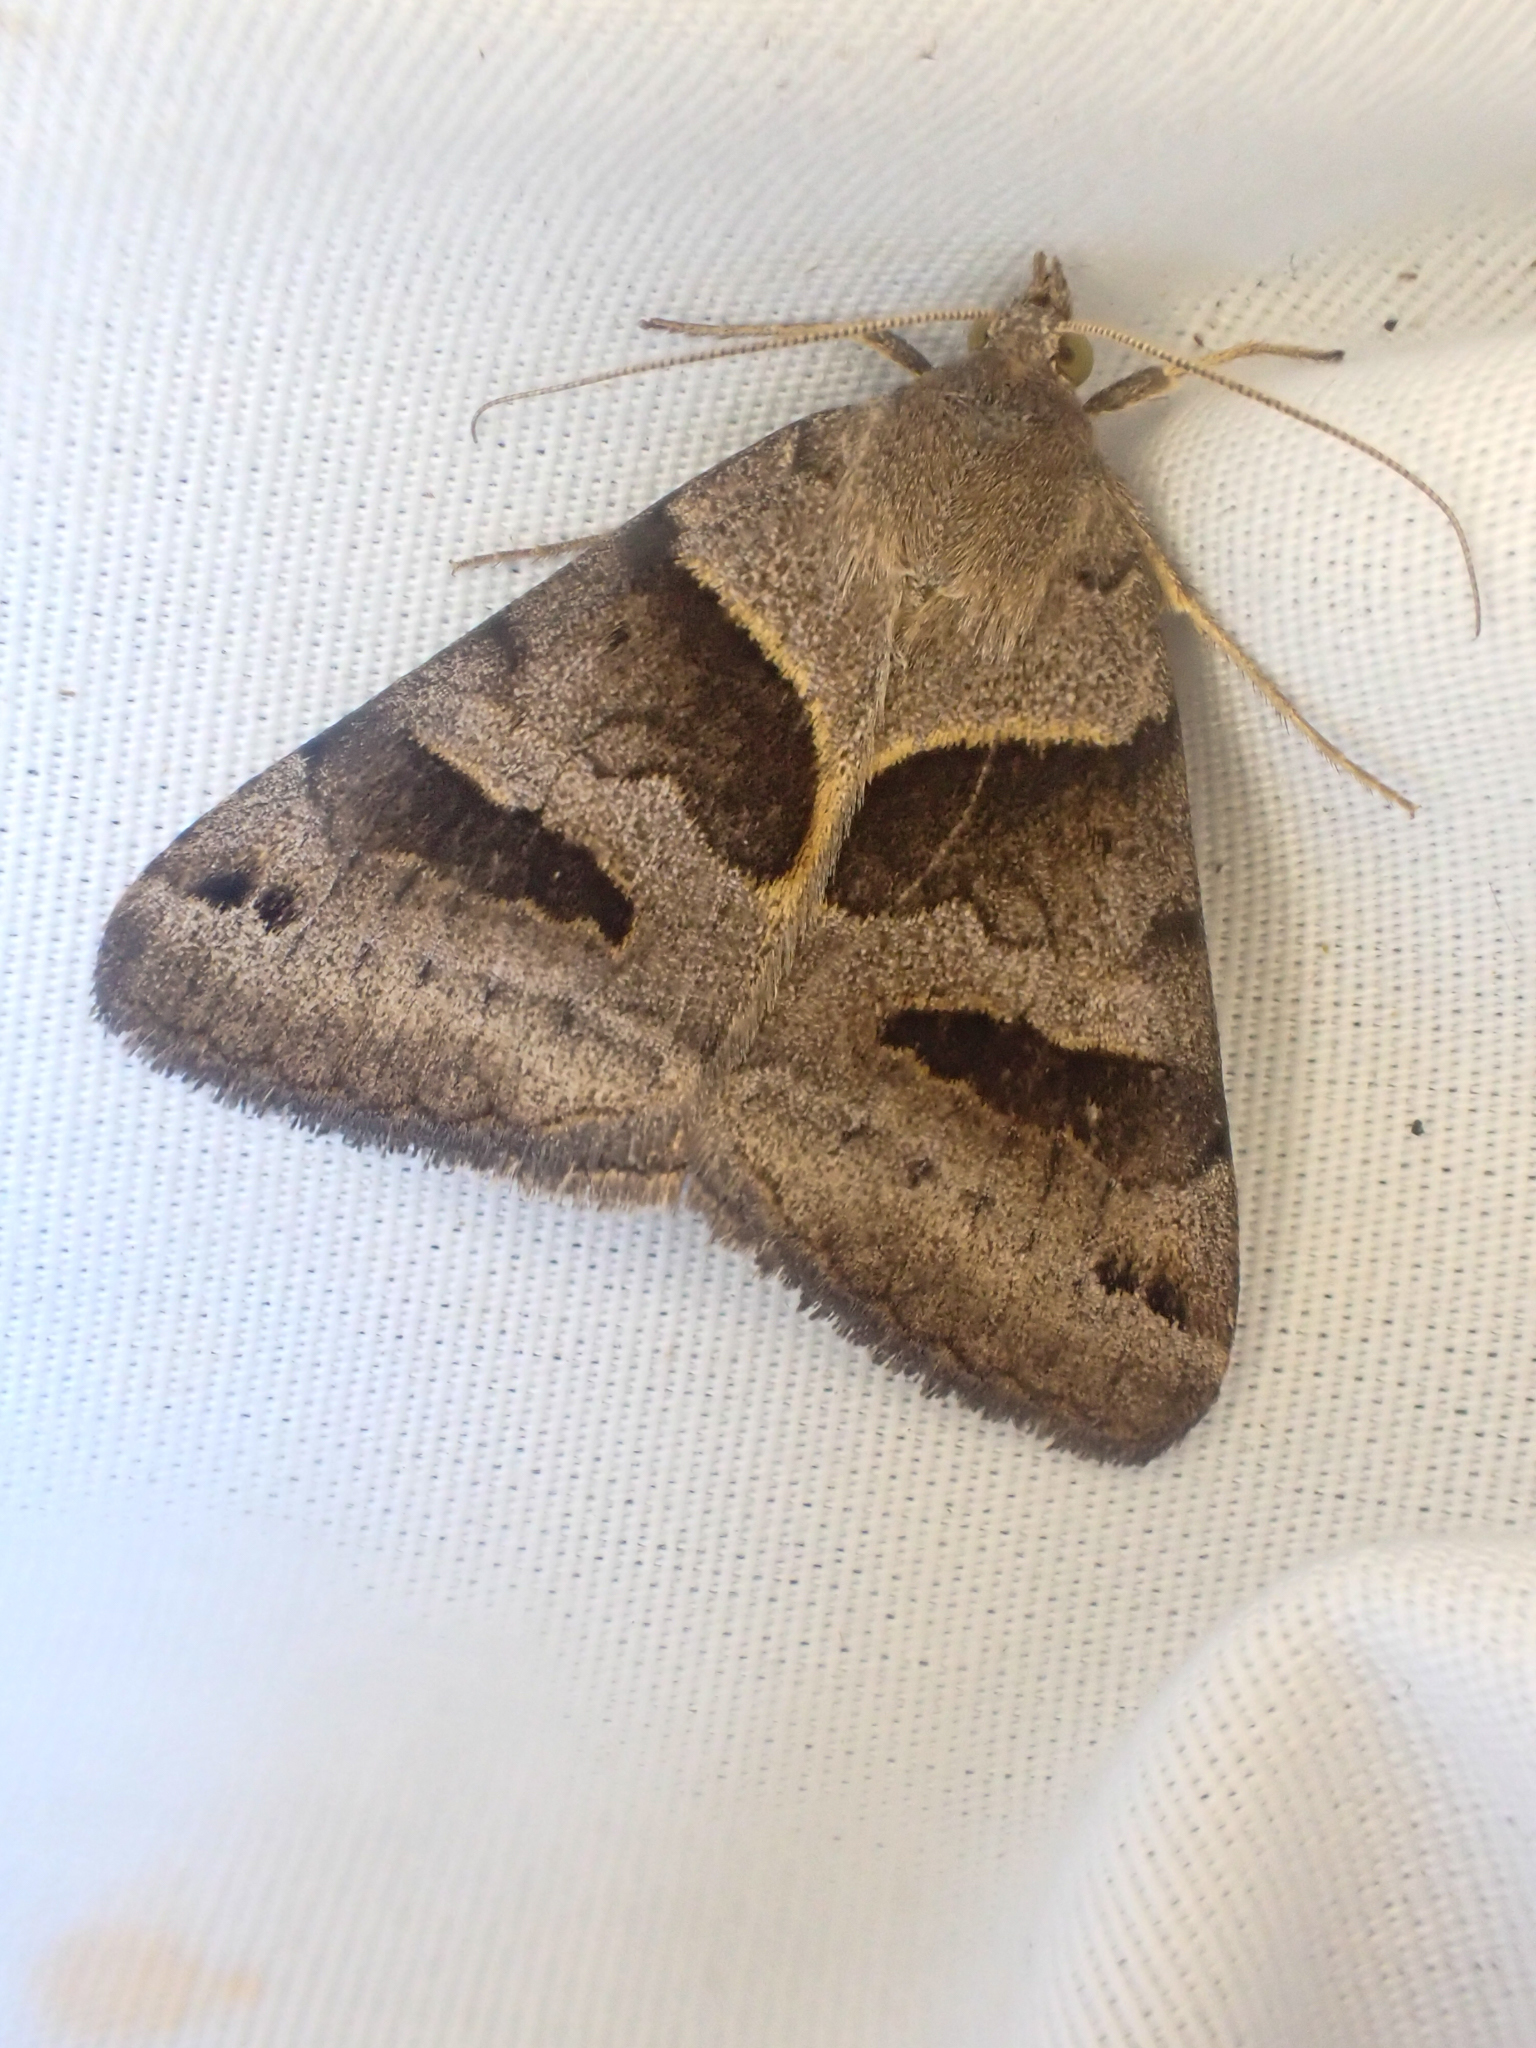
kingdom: Animalia
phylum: Arthropoda
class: Insecta
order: Lepidoptera
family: Erebidae
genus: Caenurgina
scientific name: Caenurgina erechtea
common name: Forage looper moth
